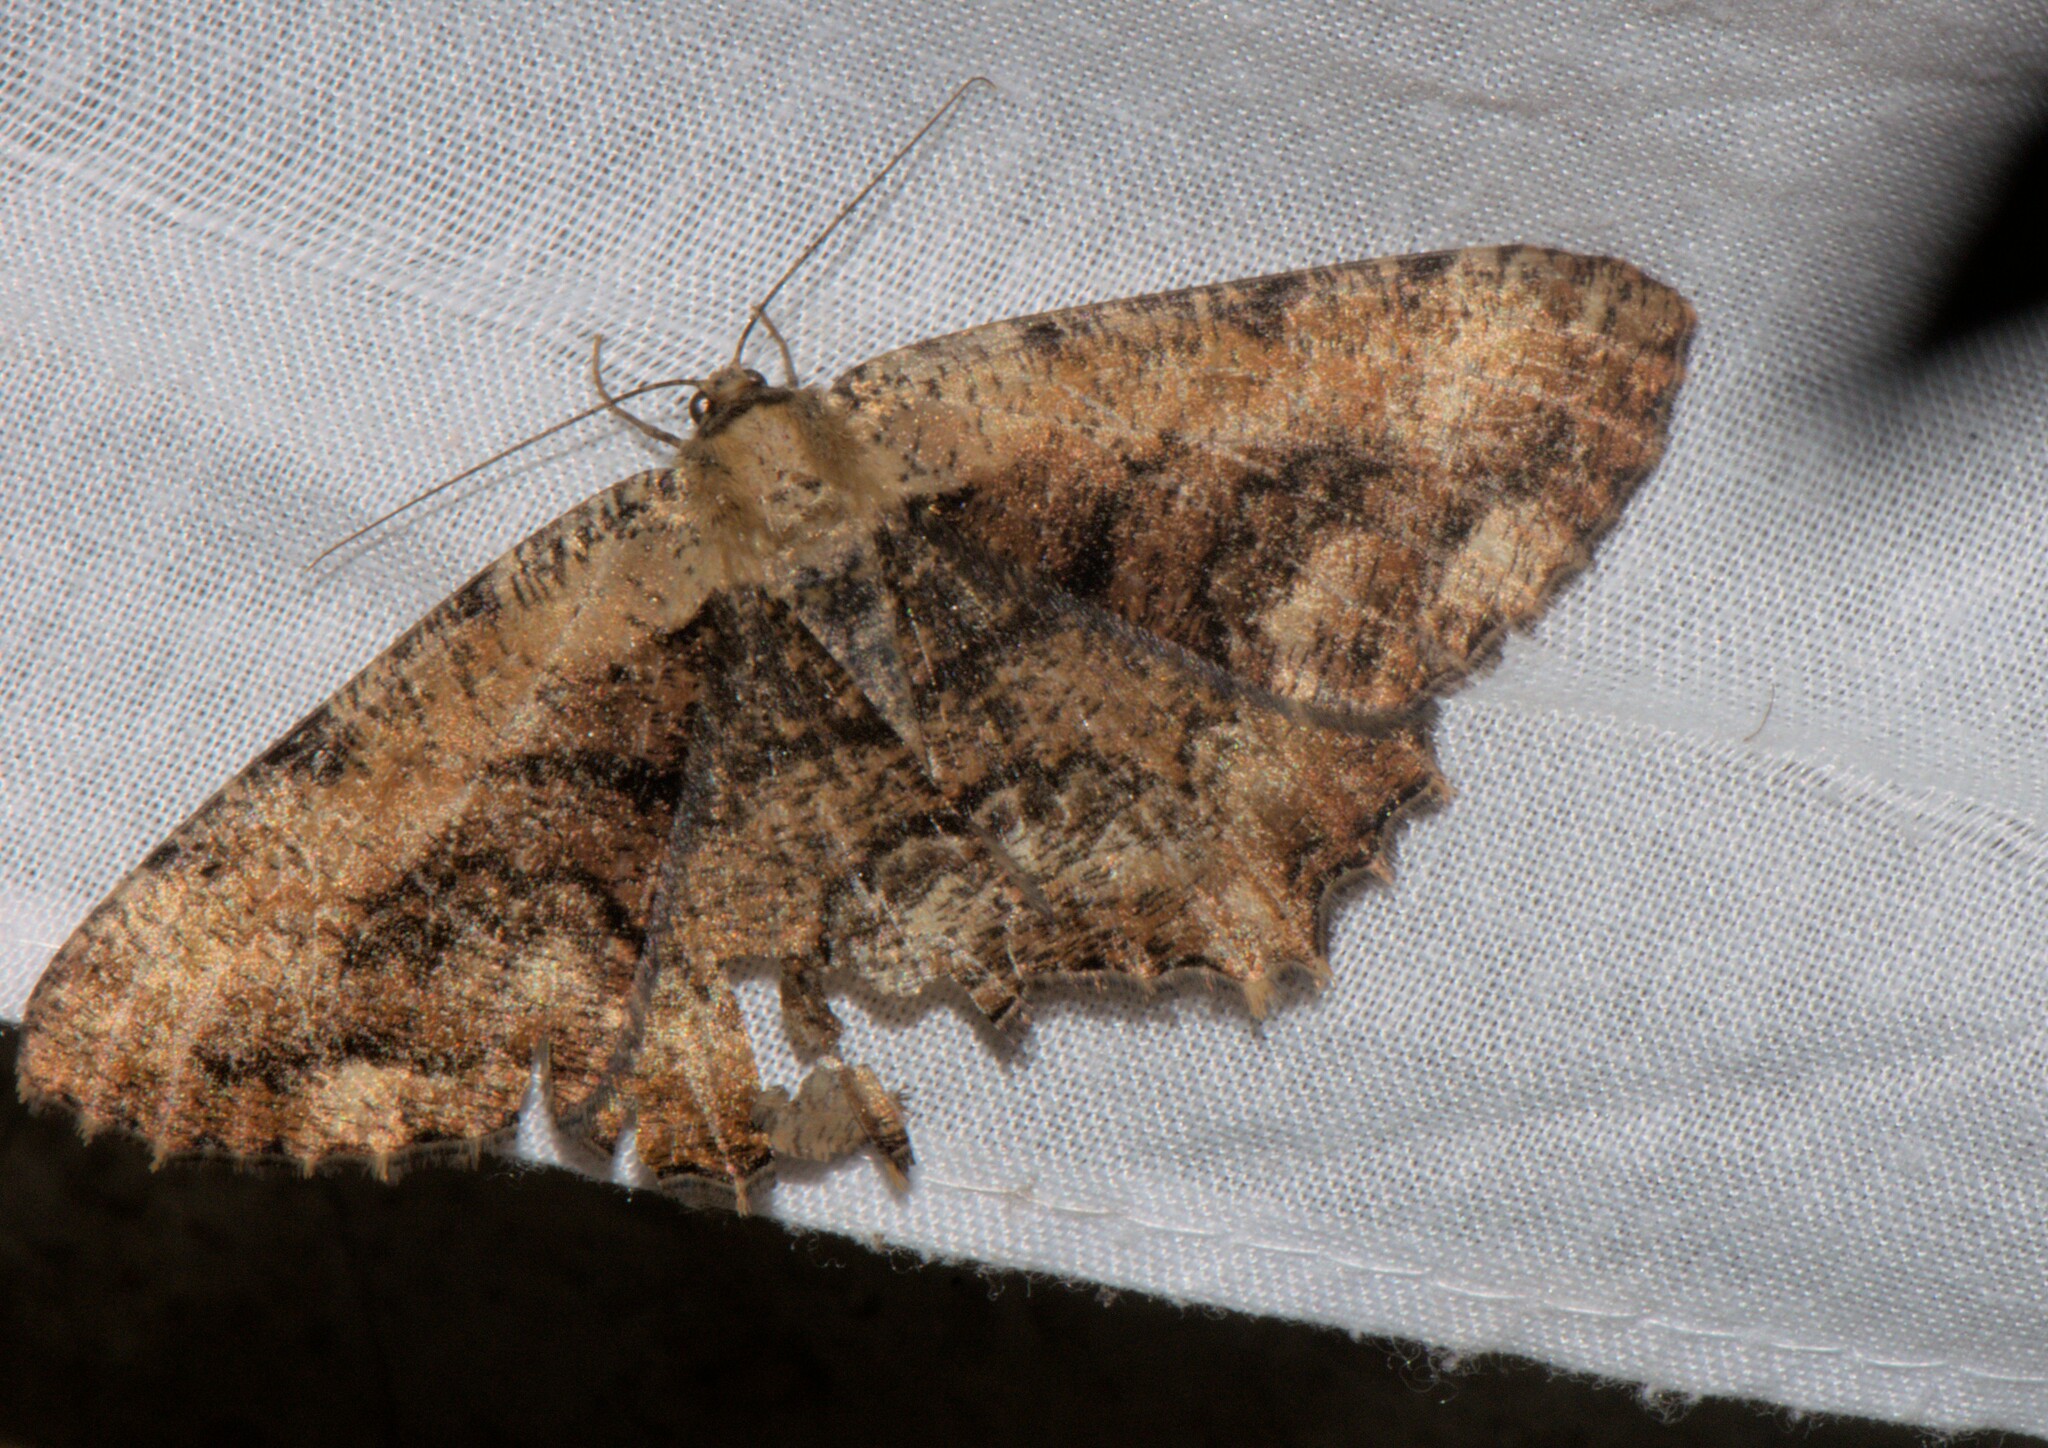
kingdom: Animalia
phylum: Arthropoda
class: Insecta
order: Lepidoptera
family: Geometridae
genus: Lassaba
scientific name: Lassaba interruptaria
